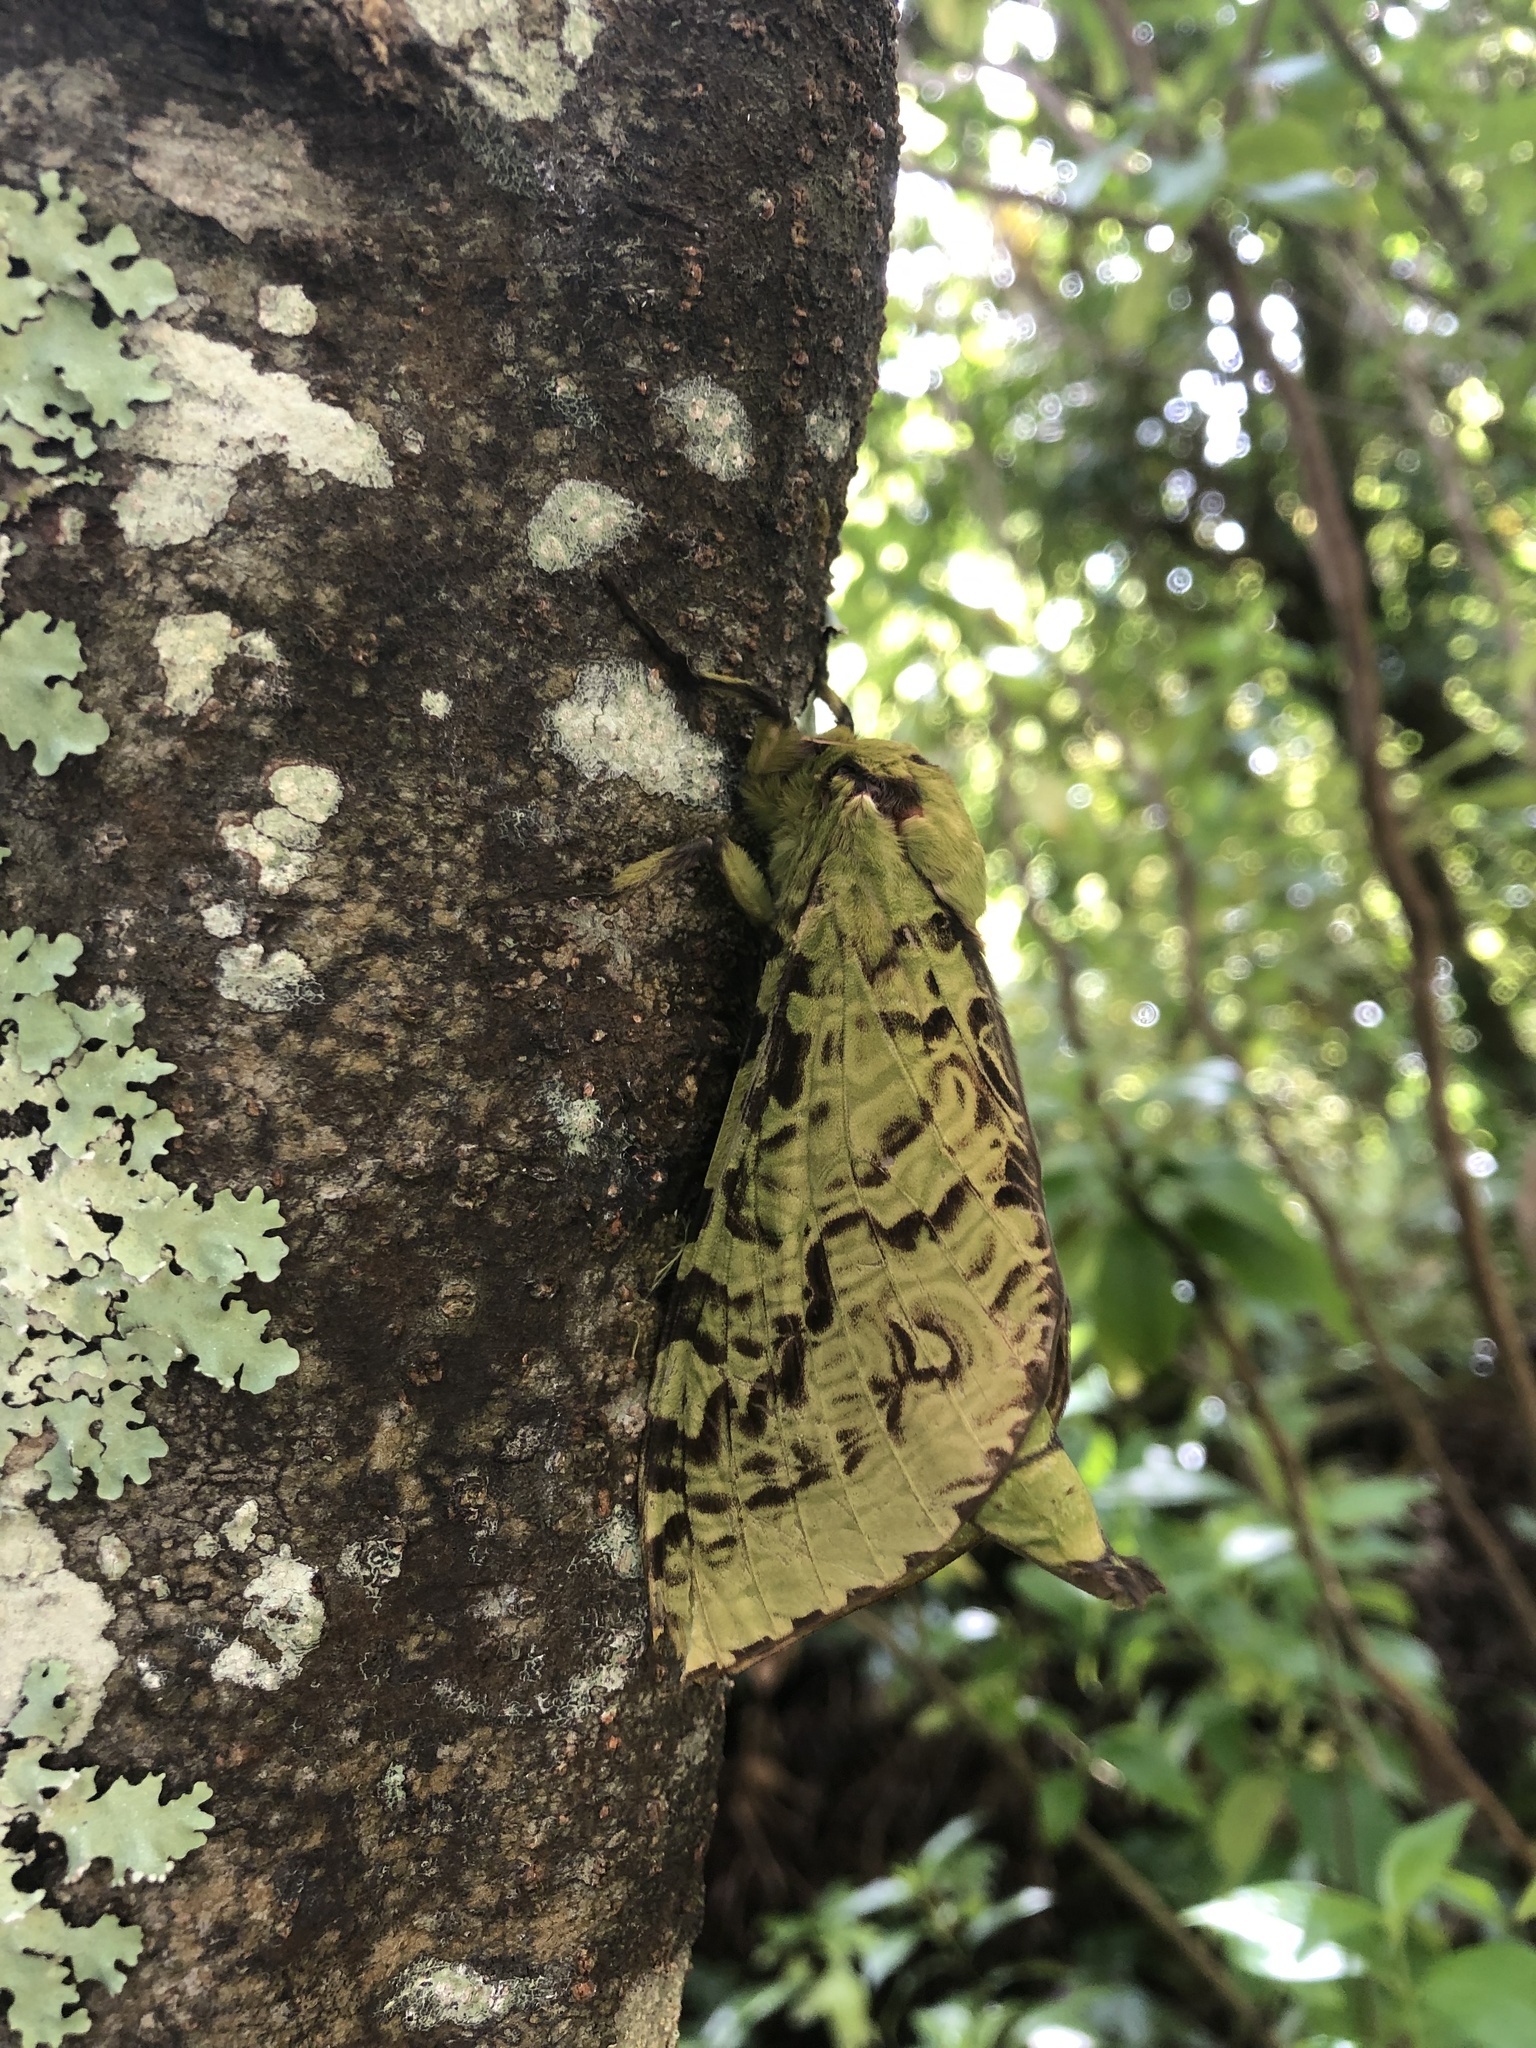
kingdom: Animalia
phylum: Arthropoda
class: Insecta
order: Lepidoptera
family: Hepialidae
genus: Aenetus
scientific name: Aenetus virescens
